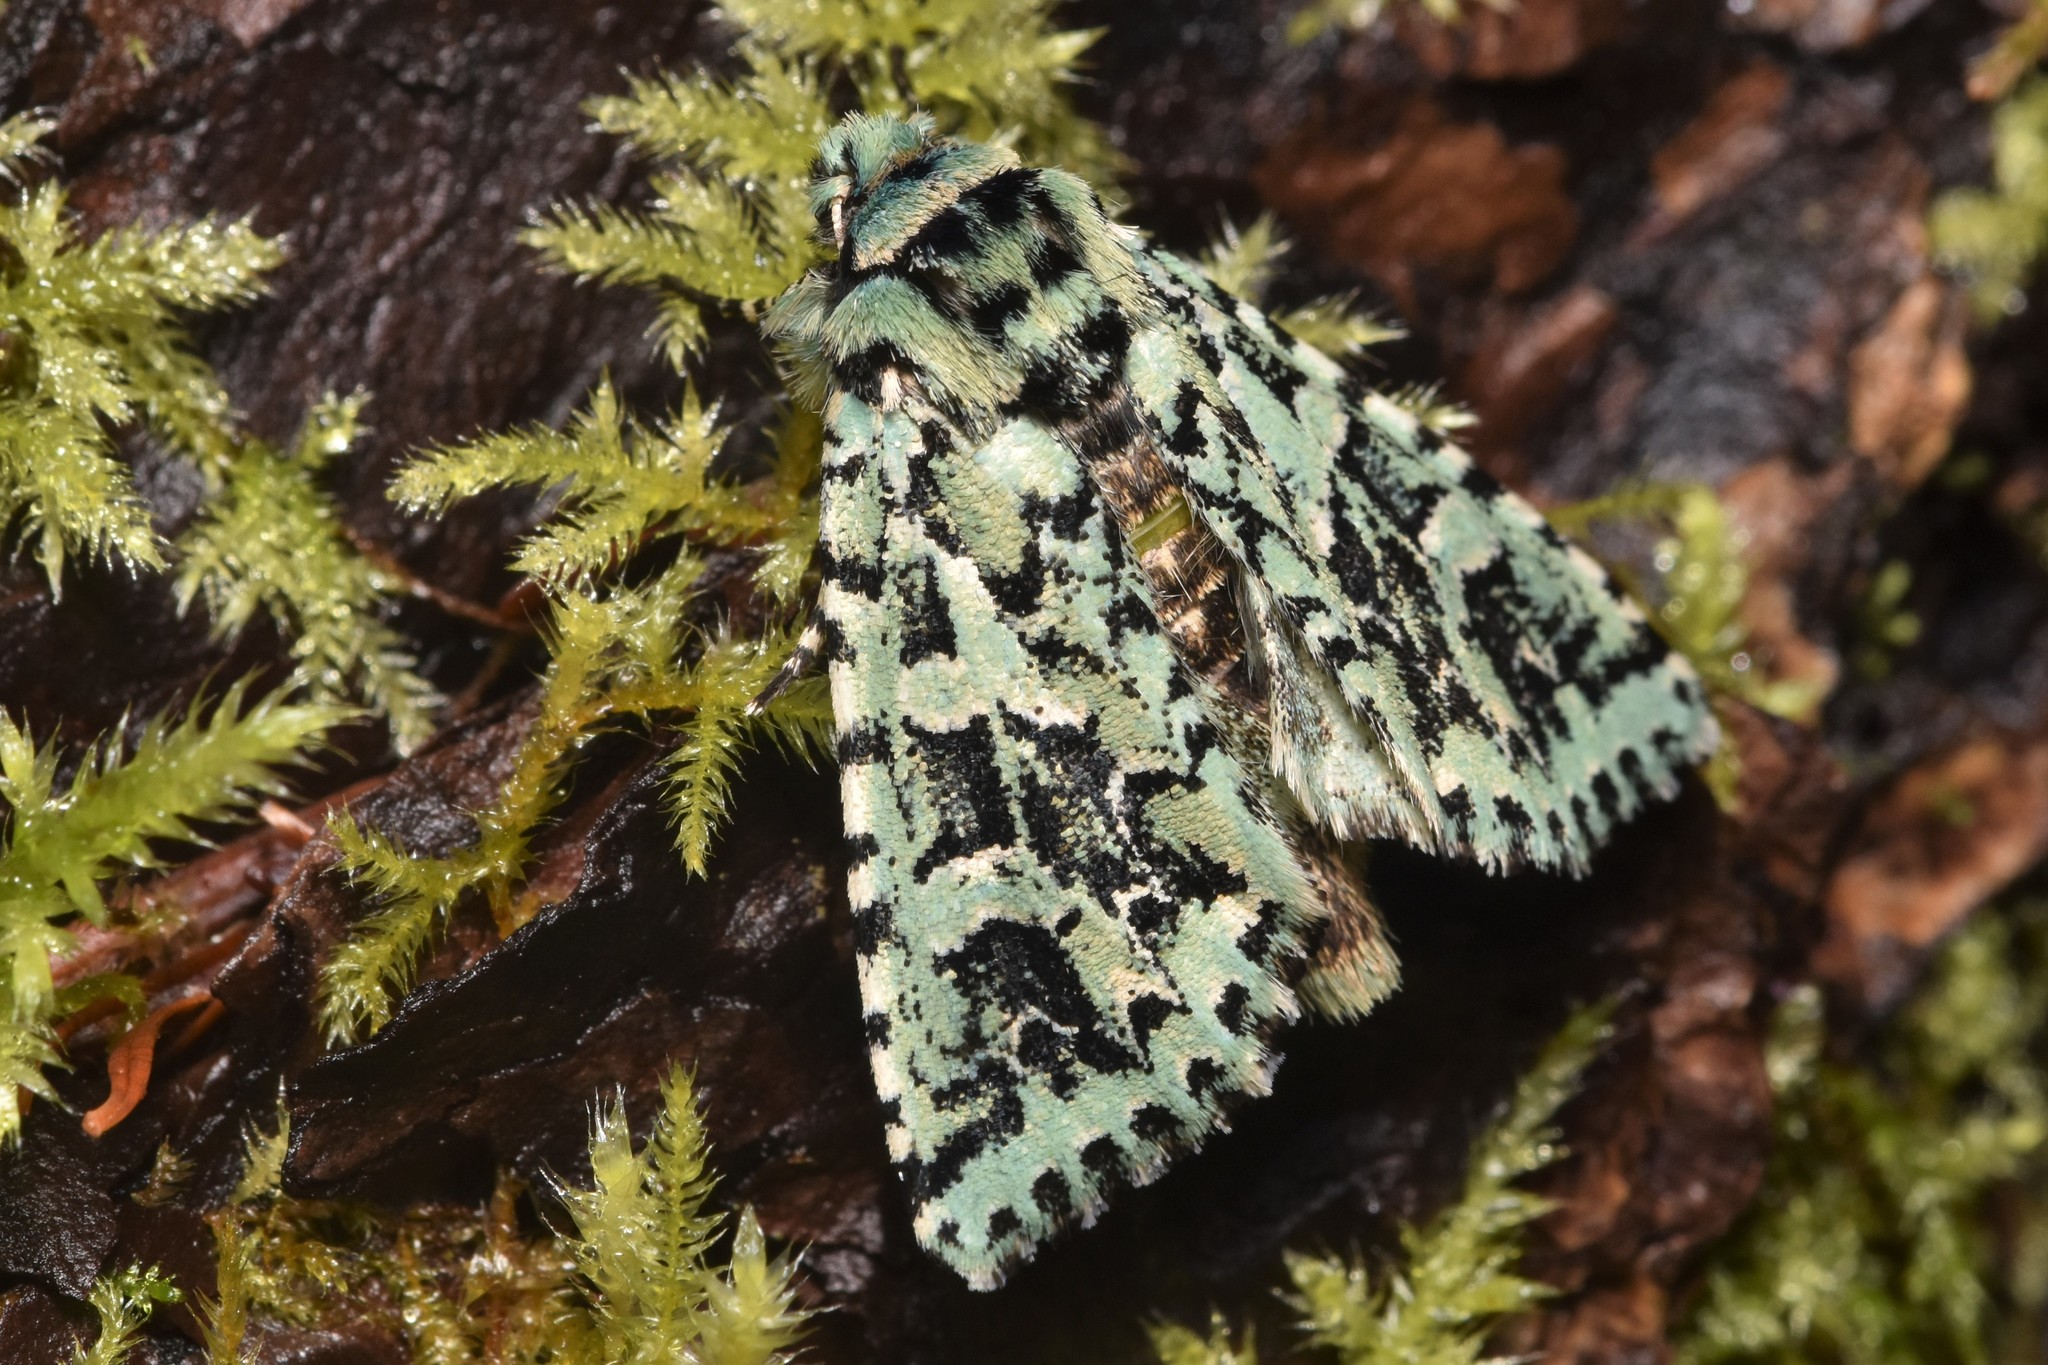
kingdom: Animalia
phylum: Arthropoda
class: Insecta
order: Lepidoptera
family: Noctuidae
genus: Feralia
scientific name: Feralia comstocki
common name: Comstock's sallow
